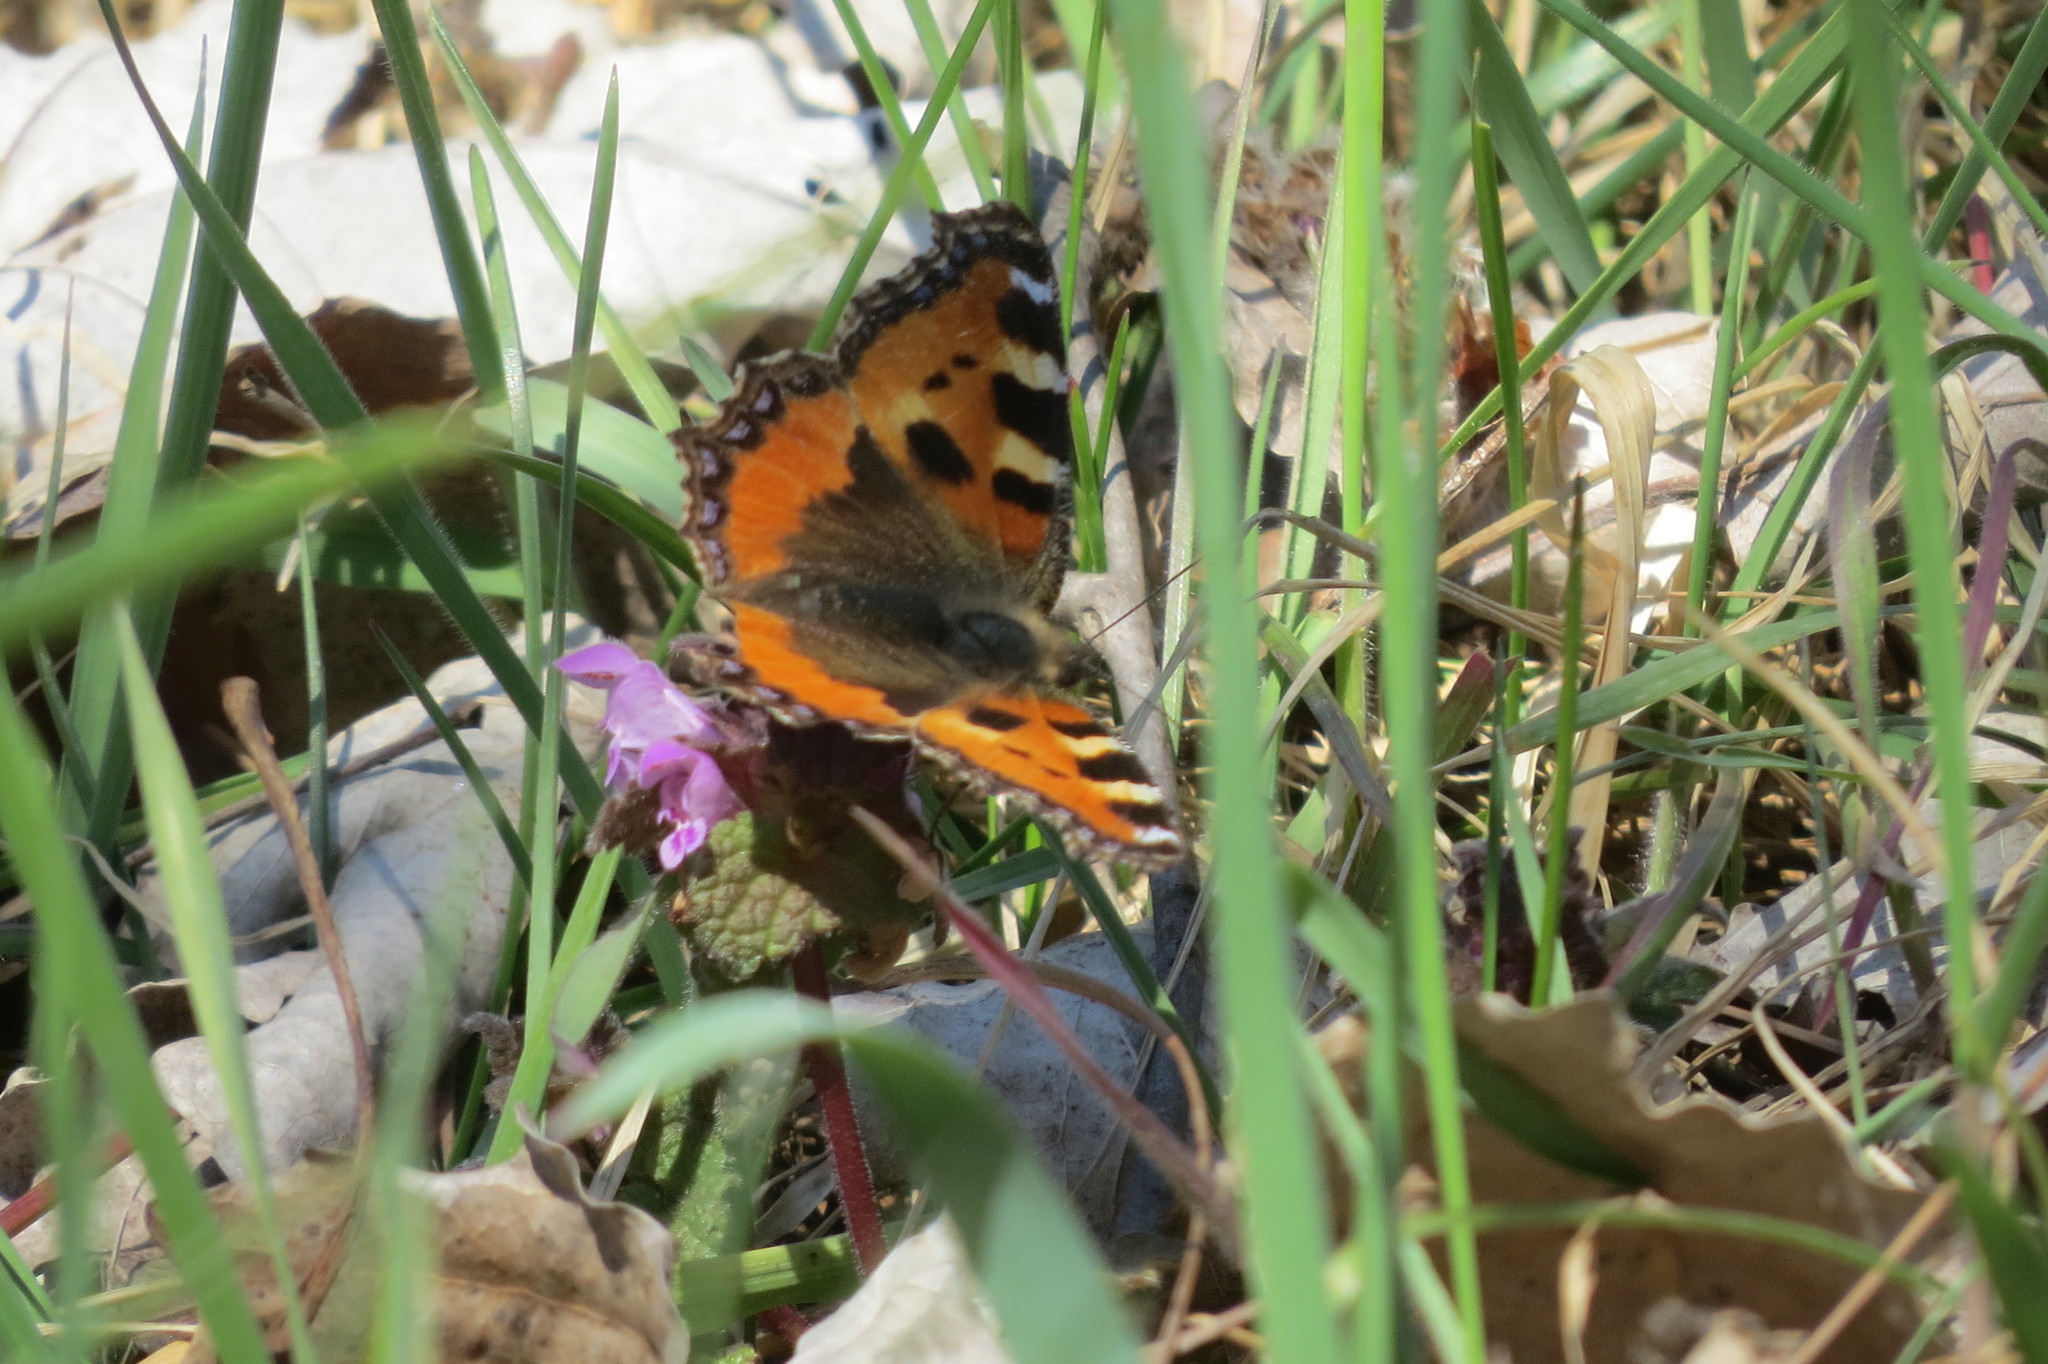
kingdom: Animalia
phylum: Arthropoda
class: Insecta
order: Lepidoptera
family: Nymphalidae
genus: Aglais
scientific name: Aglais urticae
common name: Small tortoiseshell
